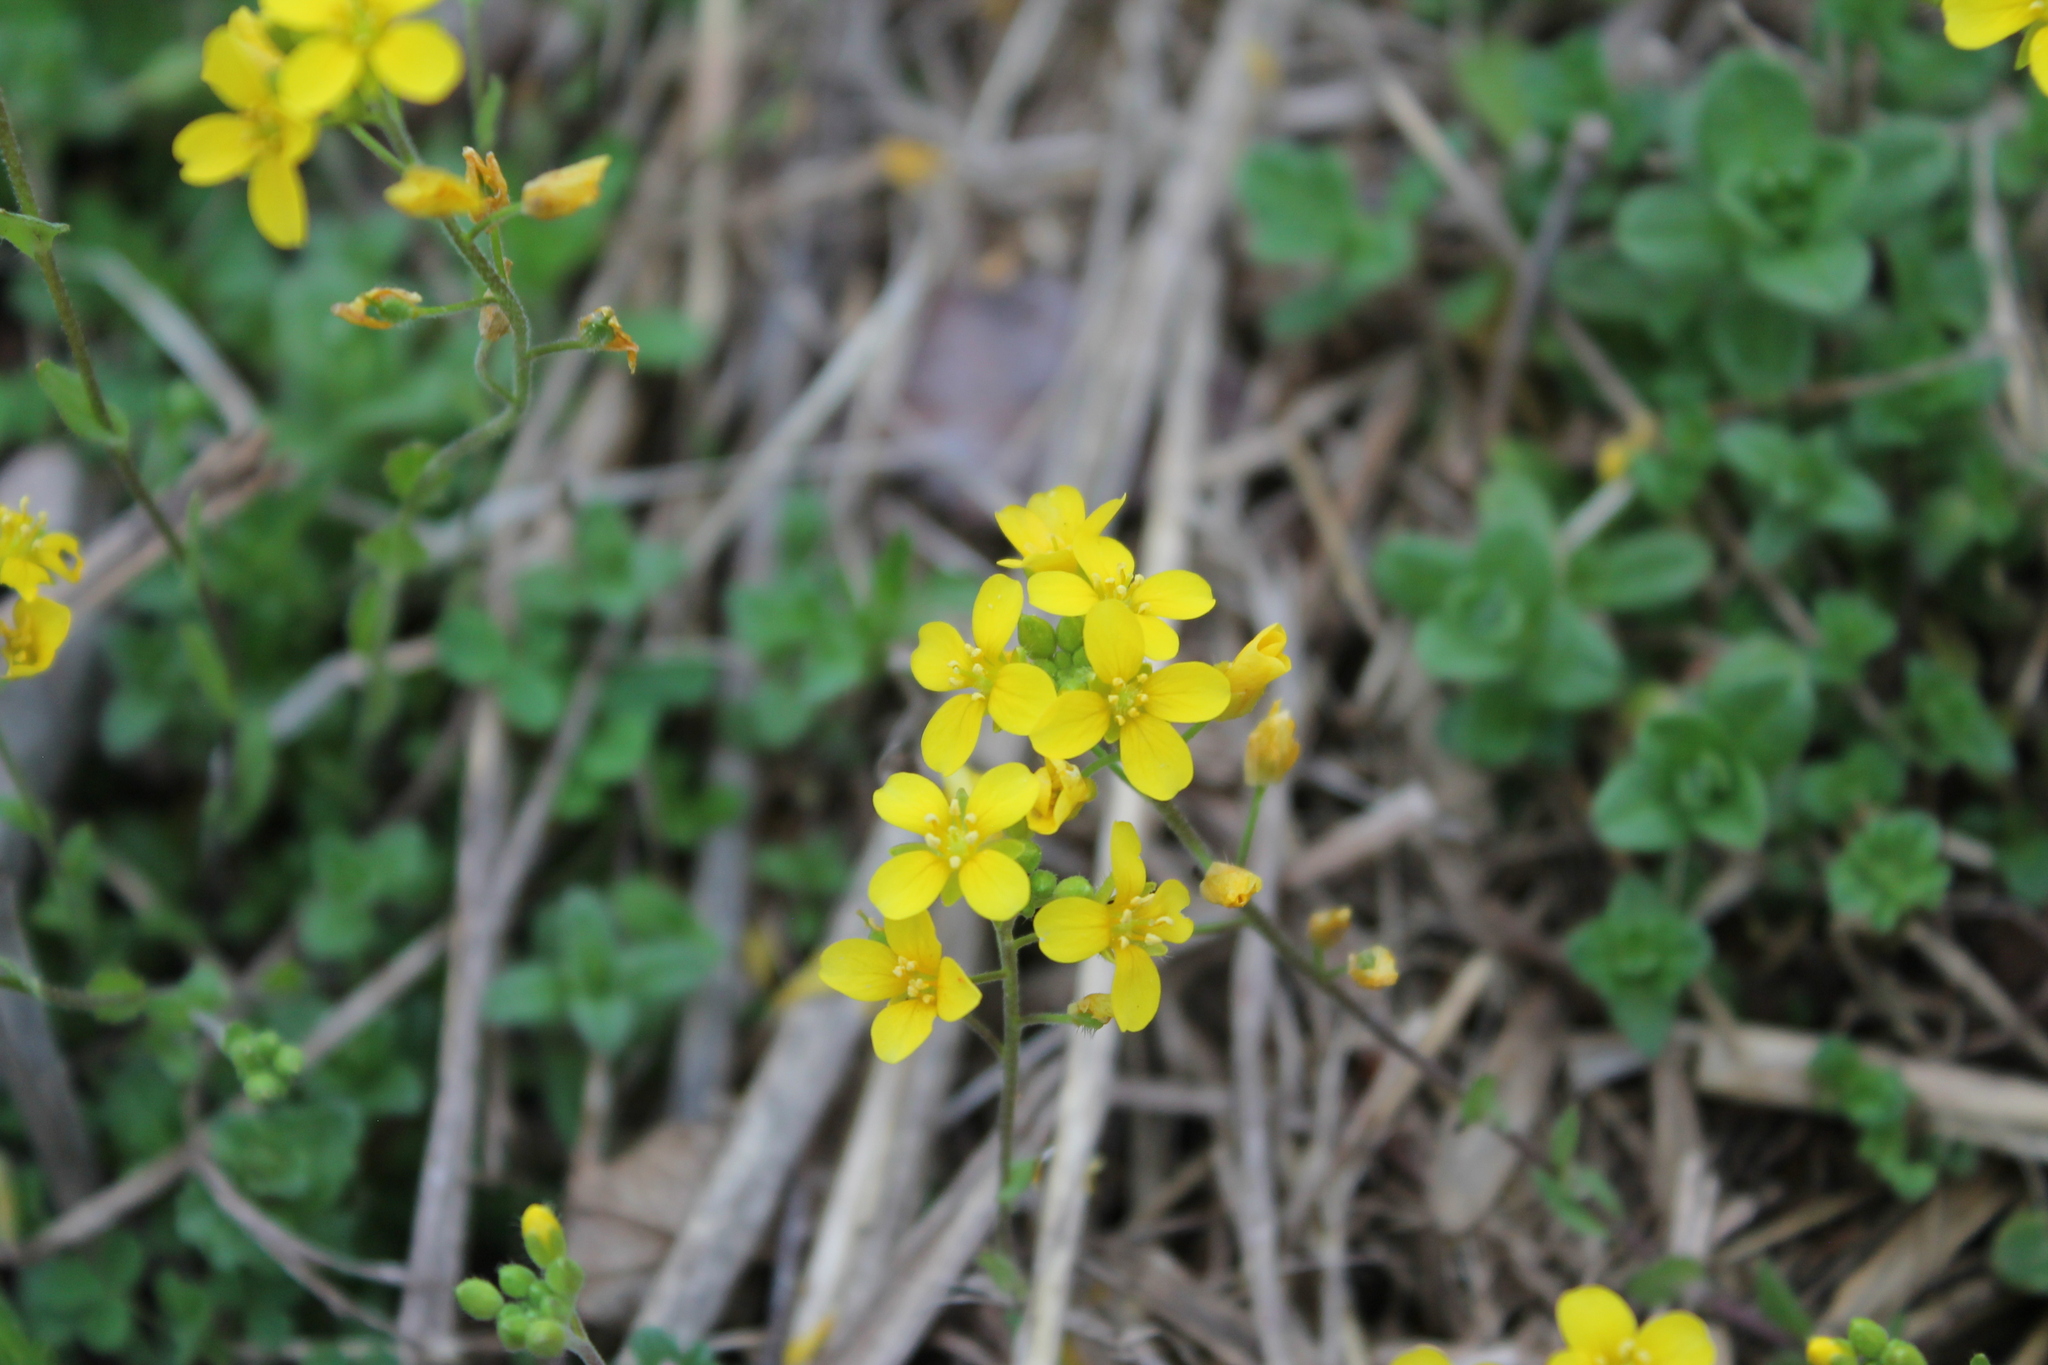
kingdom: Plantae
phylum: Tracheophyta
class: Magnoliopsida
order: Brassicales
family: Brassicaceae
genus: Paysonia
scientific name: Paysonia lescurii
